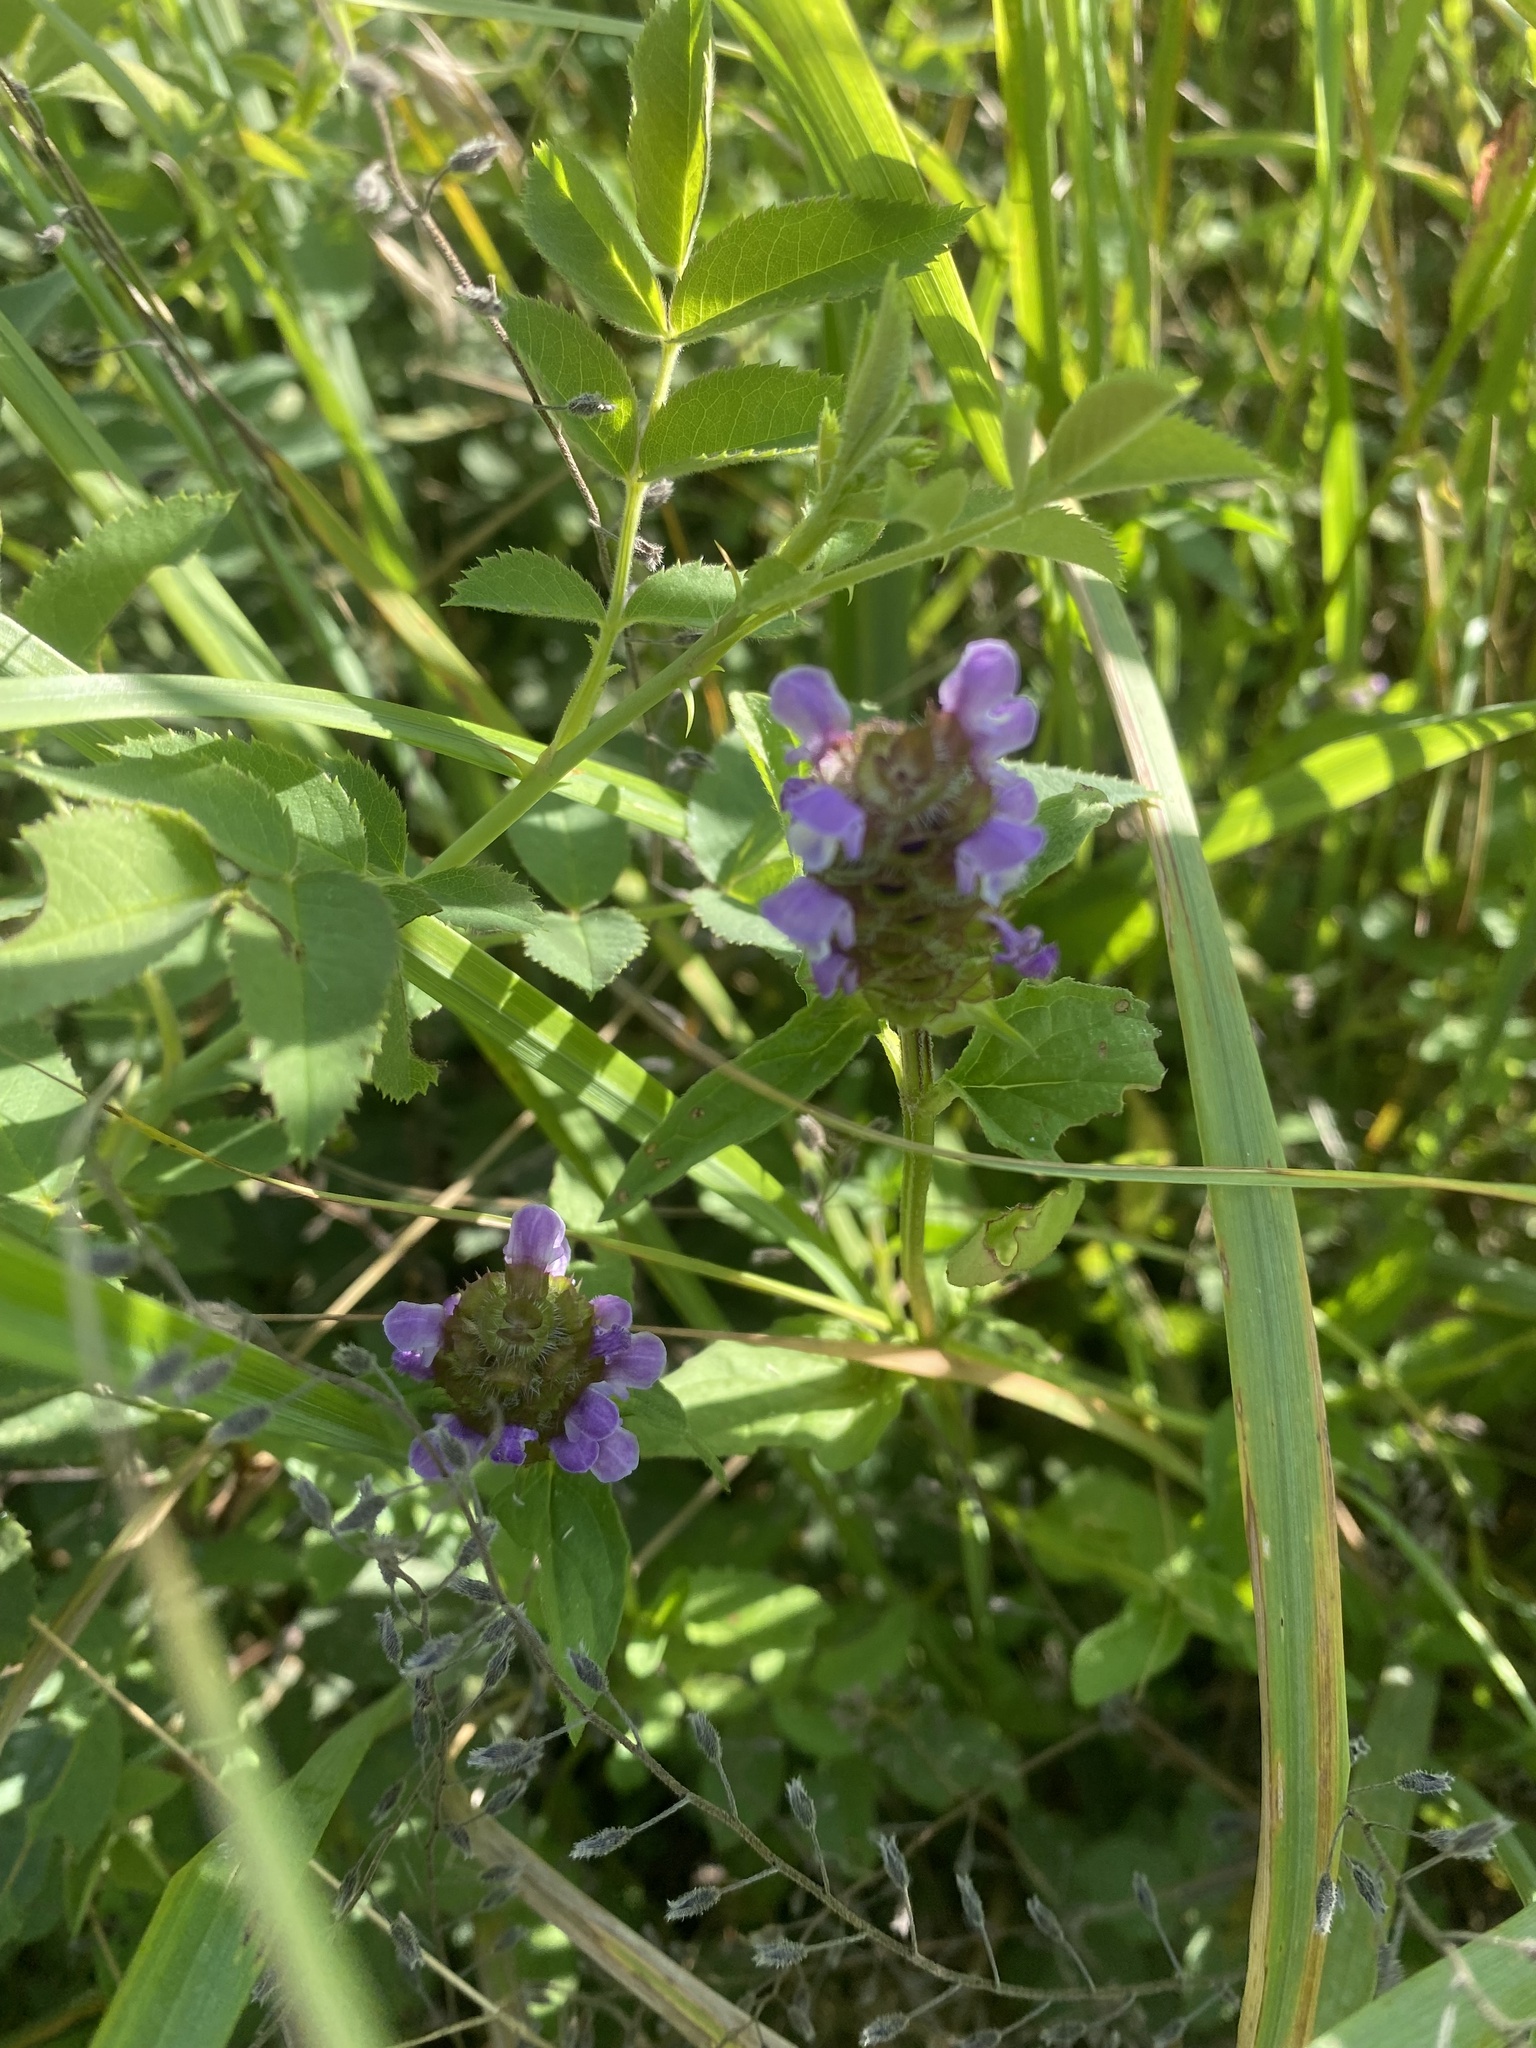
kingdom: Plantae
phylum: Tracheophyta
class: Magnoliopsida
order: Lamiales
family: Lamiaceae
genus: Prunella
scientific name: Prunella vulgaris
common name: Heal-all
